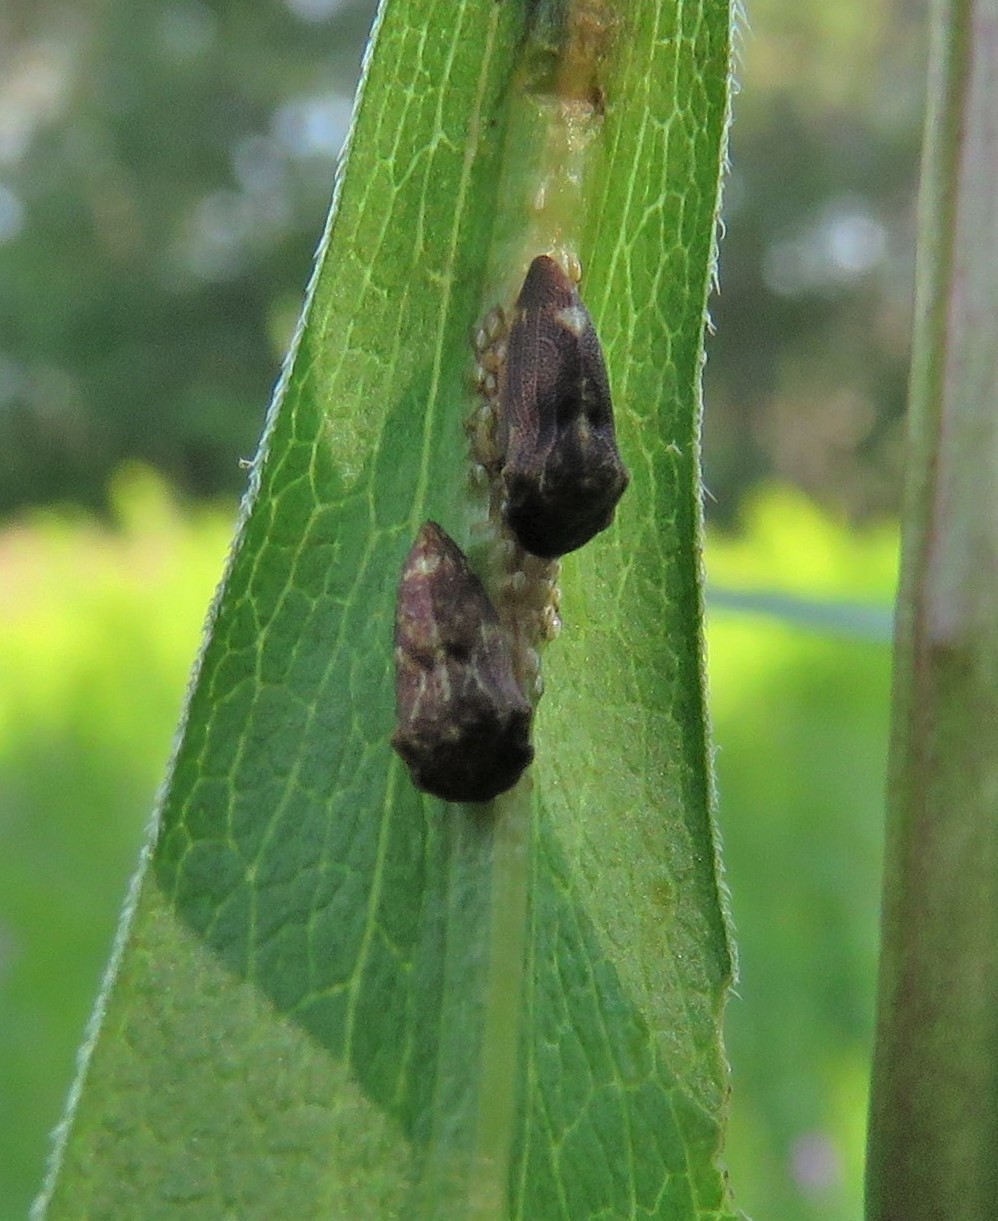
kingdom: Animalia
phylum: Arthropoda
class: Insecta
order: Hemiptera
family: Membracidae
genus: Publilia
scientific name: Publilia concava
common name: Aster treehopper
